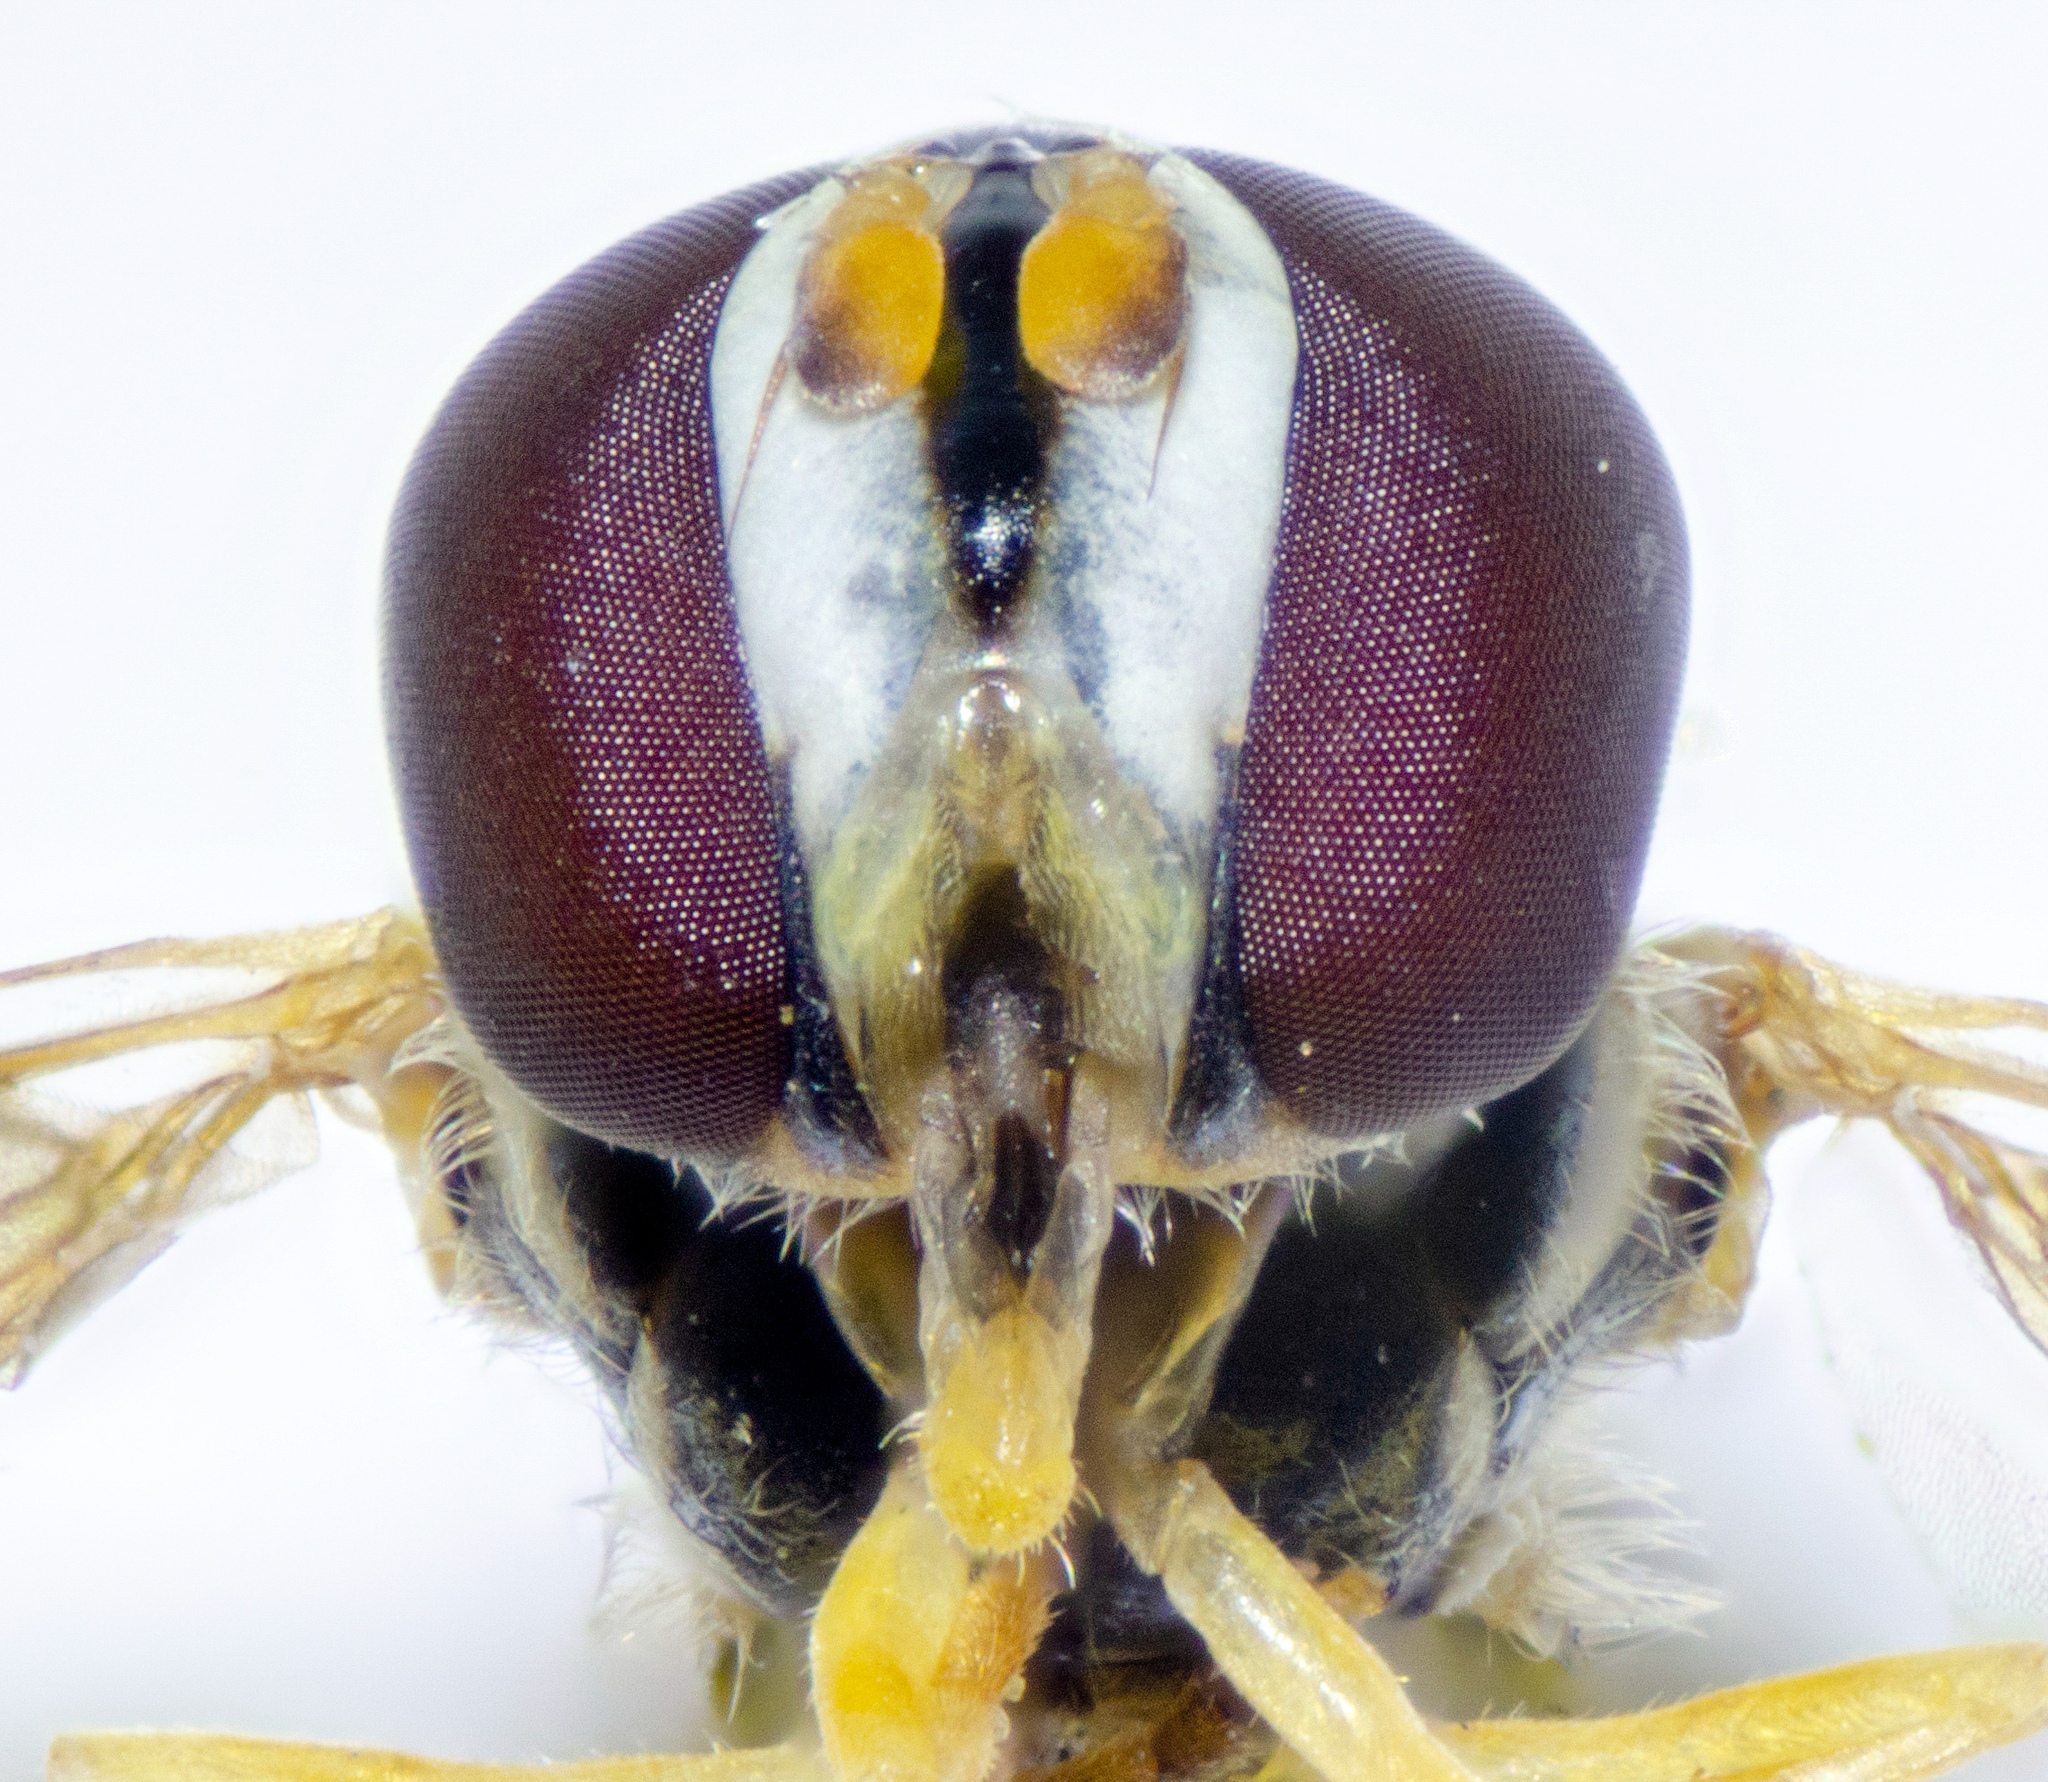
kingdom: Animalia
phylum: Arthropoda
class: Insecta
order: Diptera
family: Syrphidae
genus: Allograpta
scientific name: Allograpta exotica
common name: Syrphid fly
